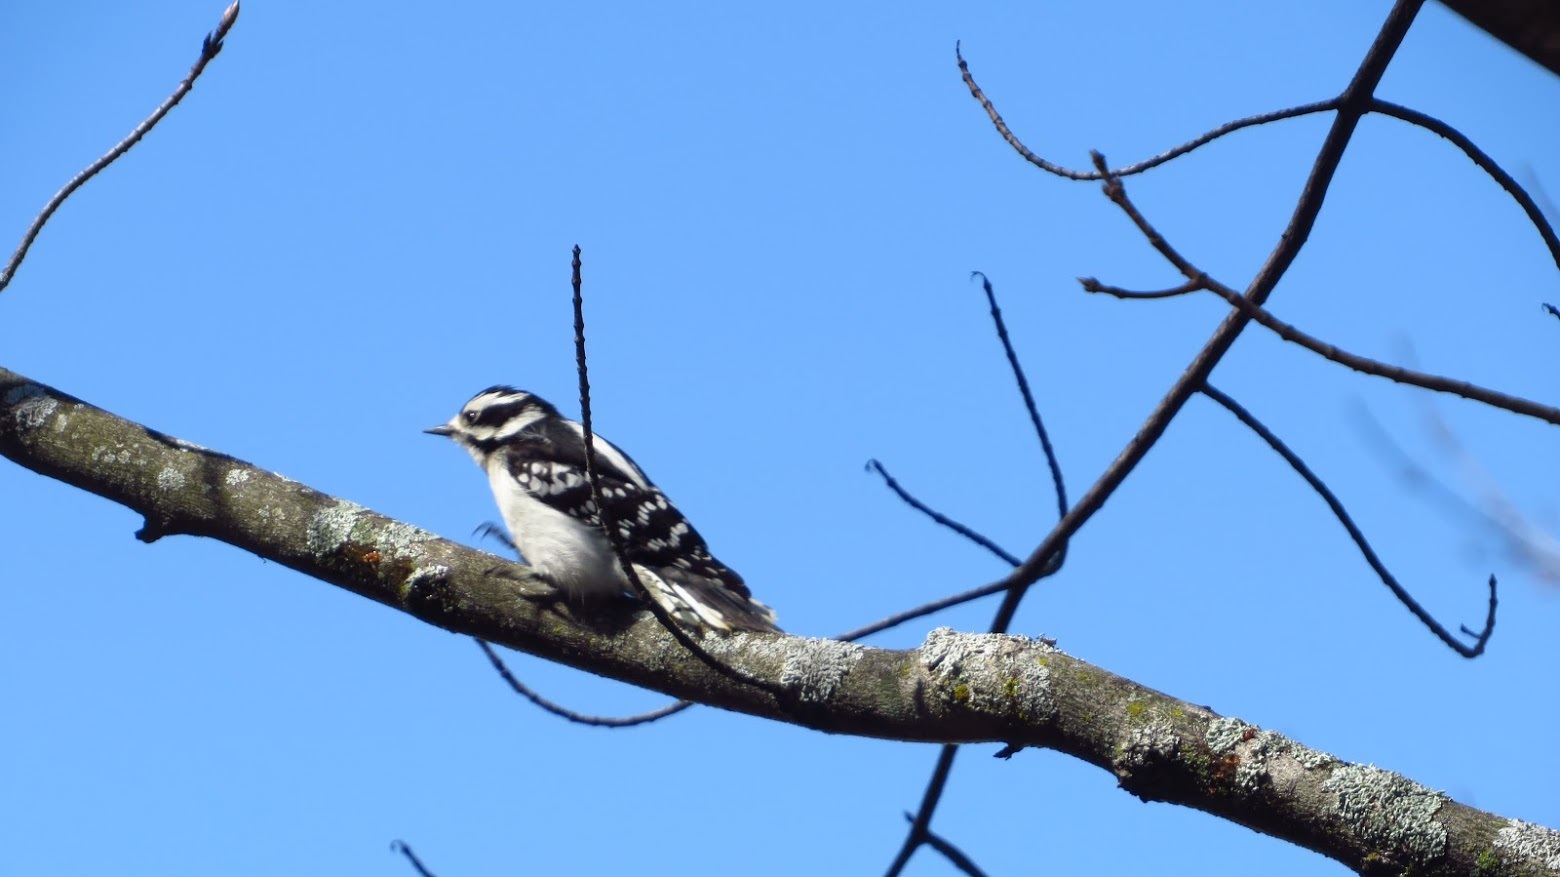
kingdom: Animalia
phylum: Chordata
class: Aves
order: Piciformes
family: Picidae
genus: Dryobates
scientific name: Dryobates pubescens
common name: Downy woodpecker
